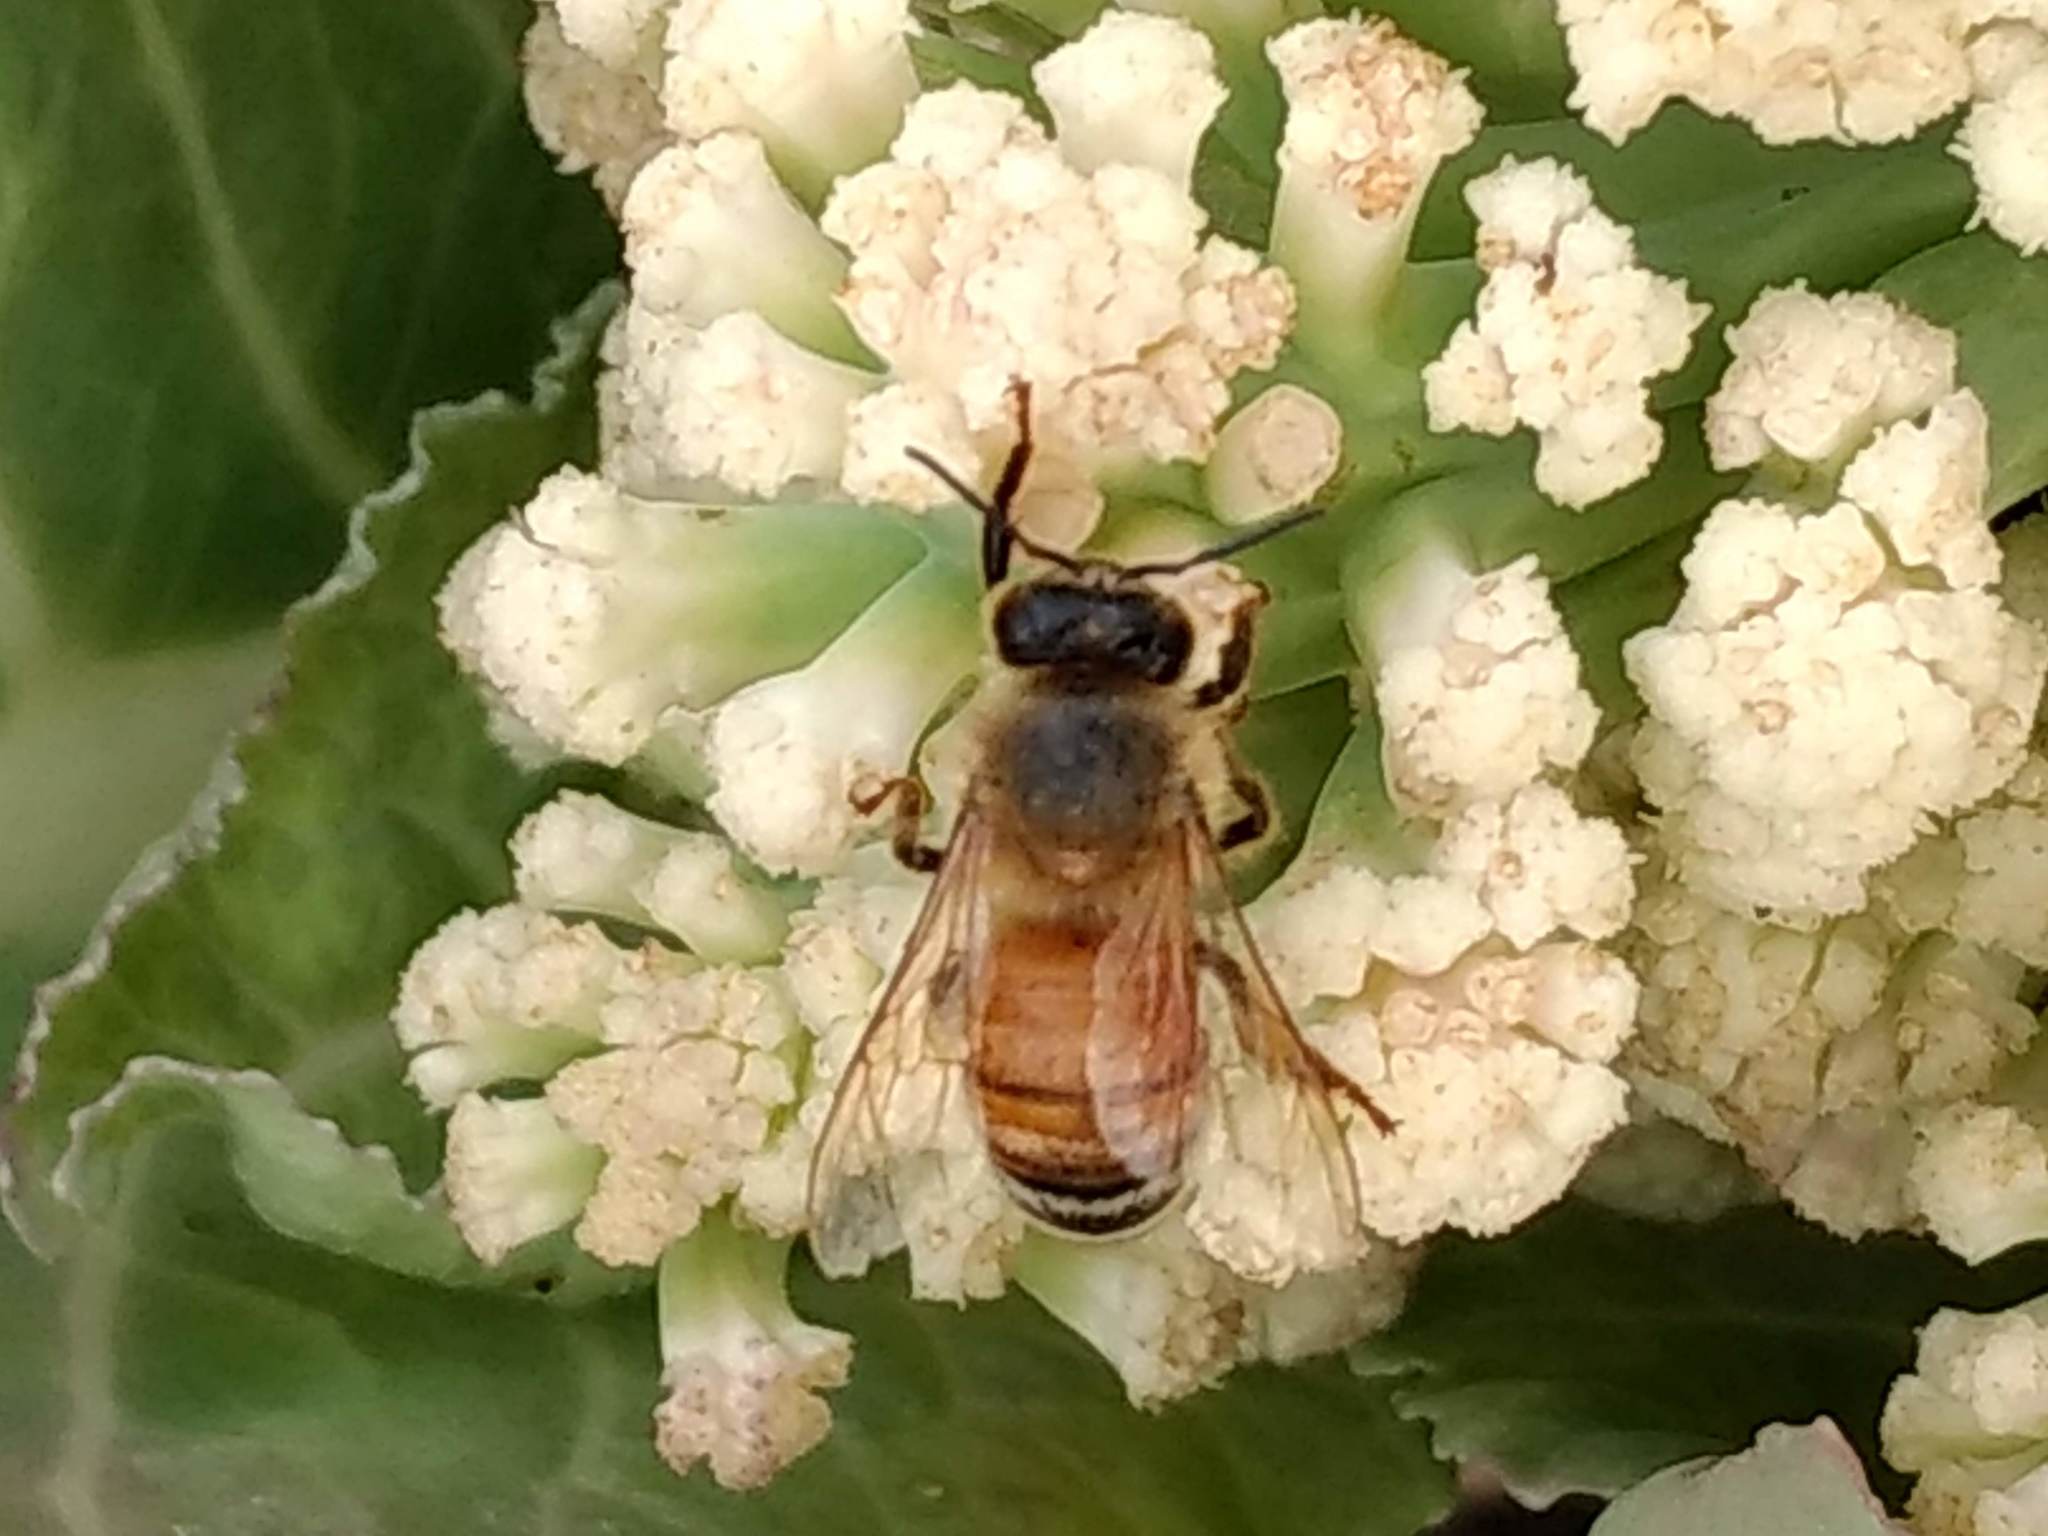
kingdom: Animalia
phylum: Arthropoda
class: Insecta
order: Hymenoptera
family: Apidae
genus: Apis
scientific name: Apis mellifera
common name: Honey bee
